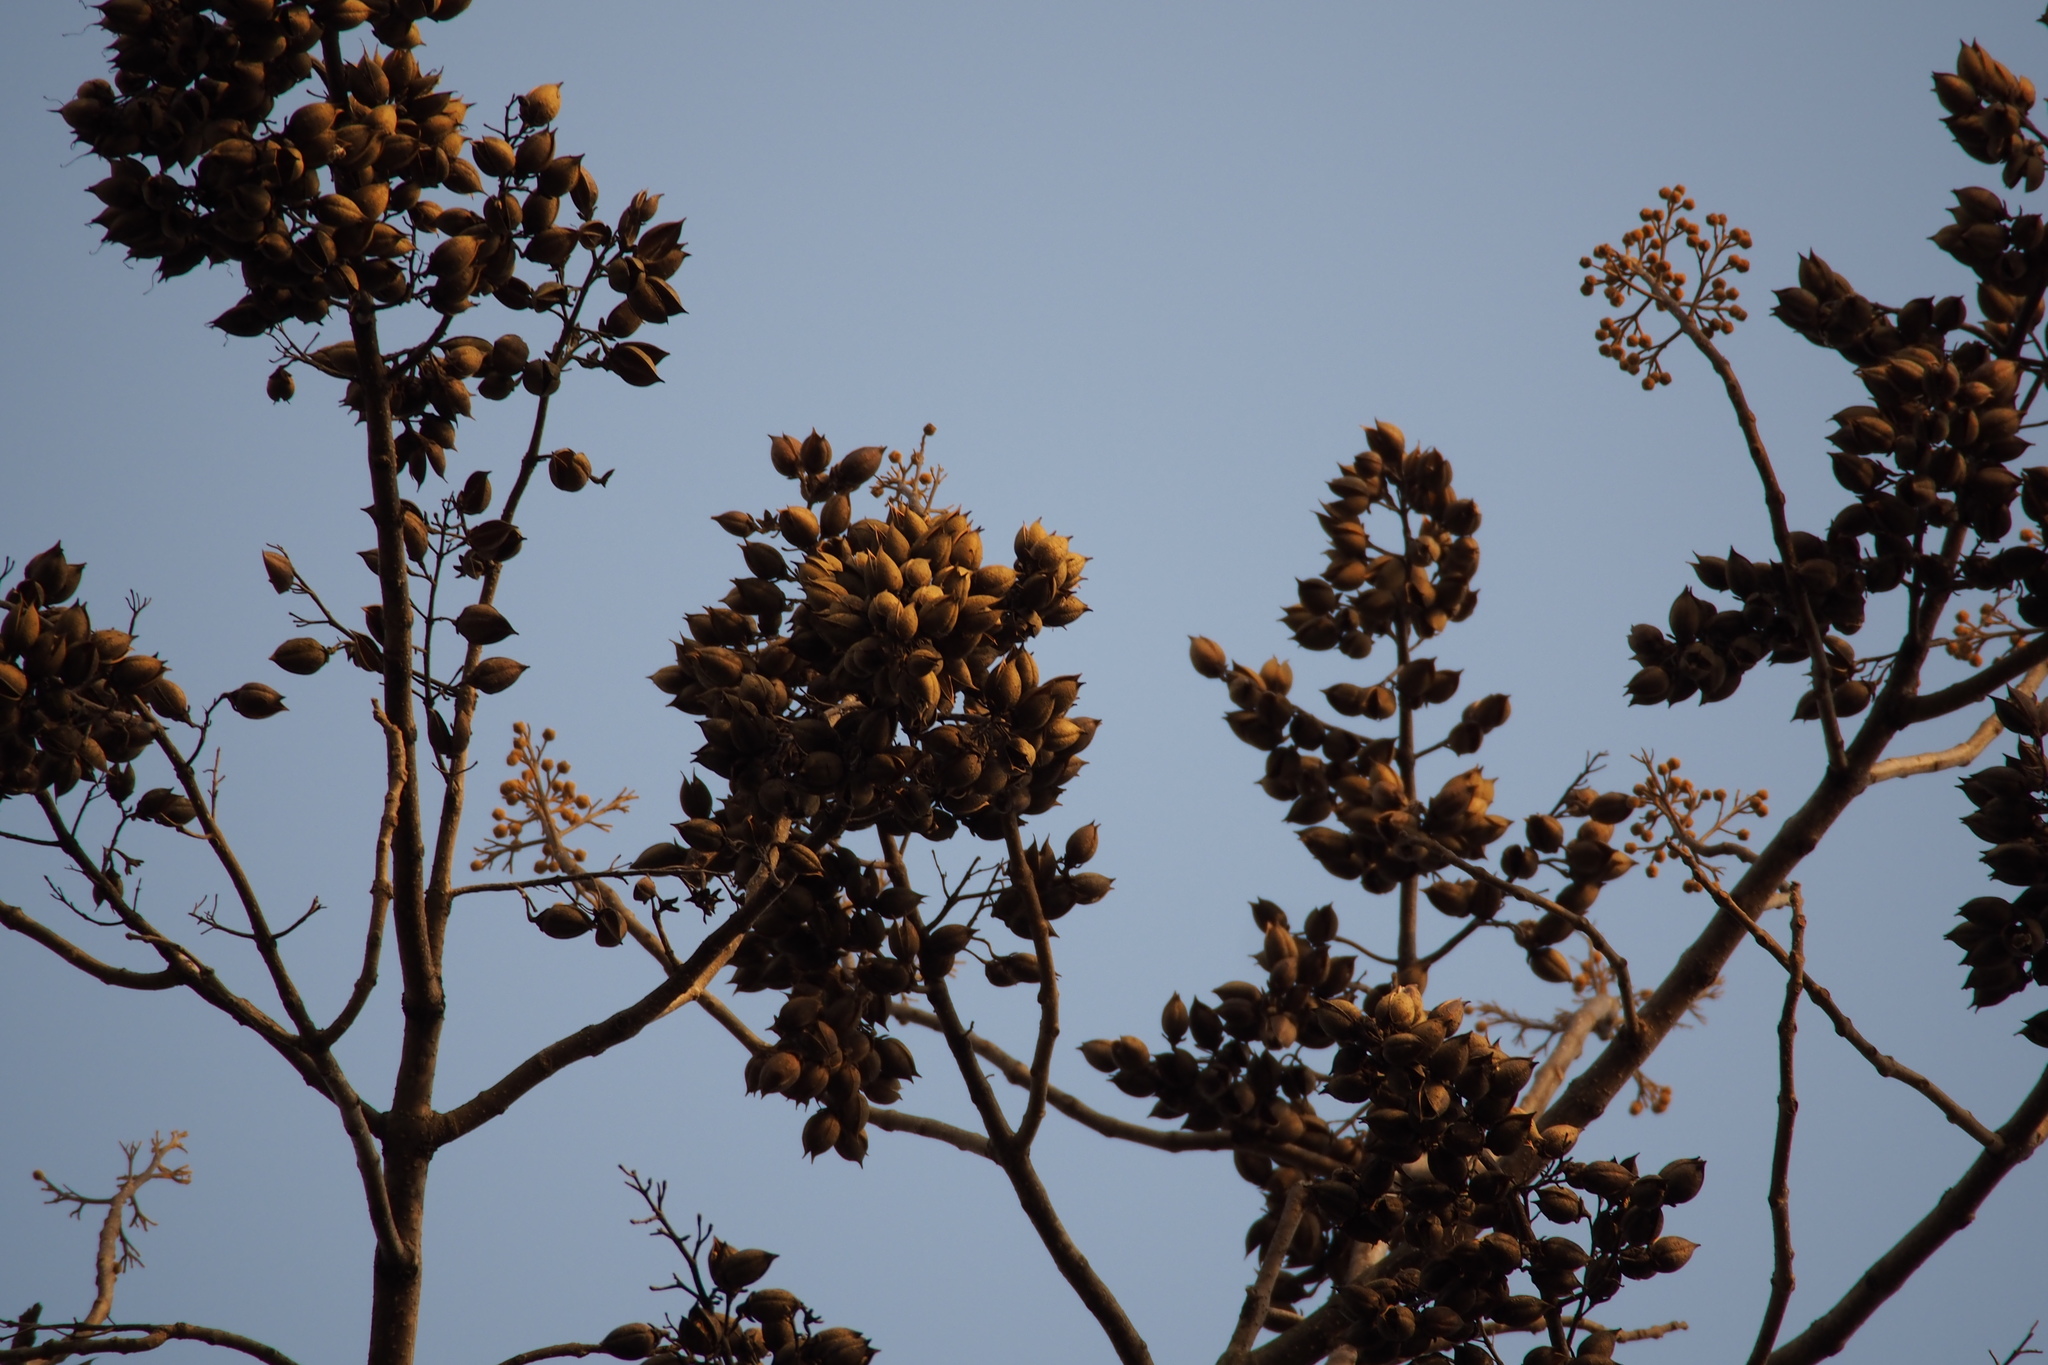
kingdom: Plantae
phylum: Tracheophyta
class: Magnoliopsida
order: Lamiales
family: Paulowniaceae
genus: Paulownia
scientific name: Paulownia tomentosa
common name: Foxglove-tree
